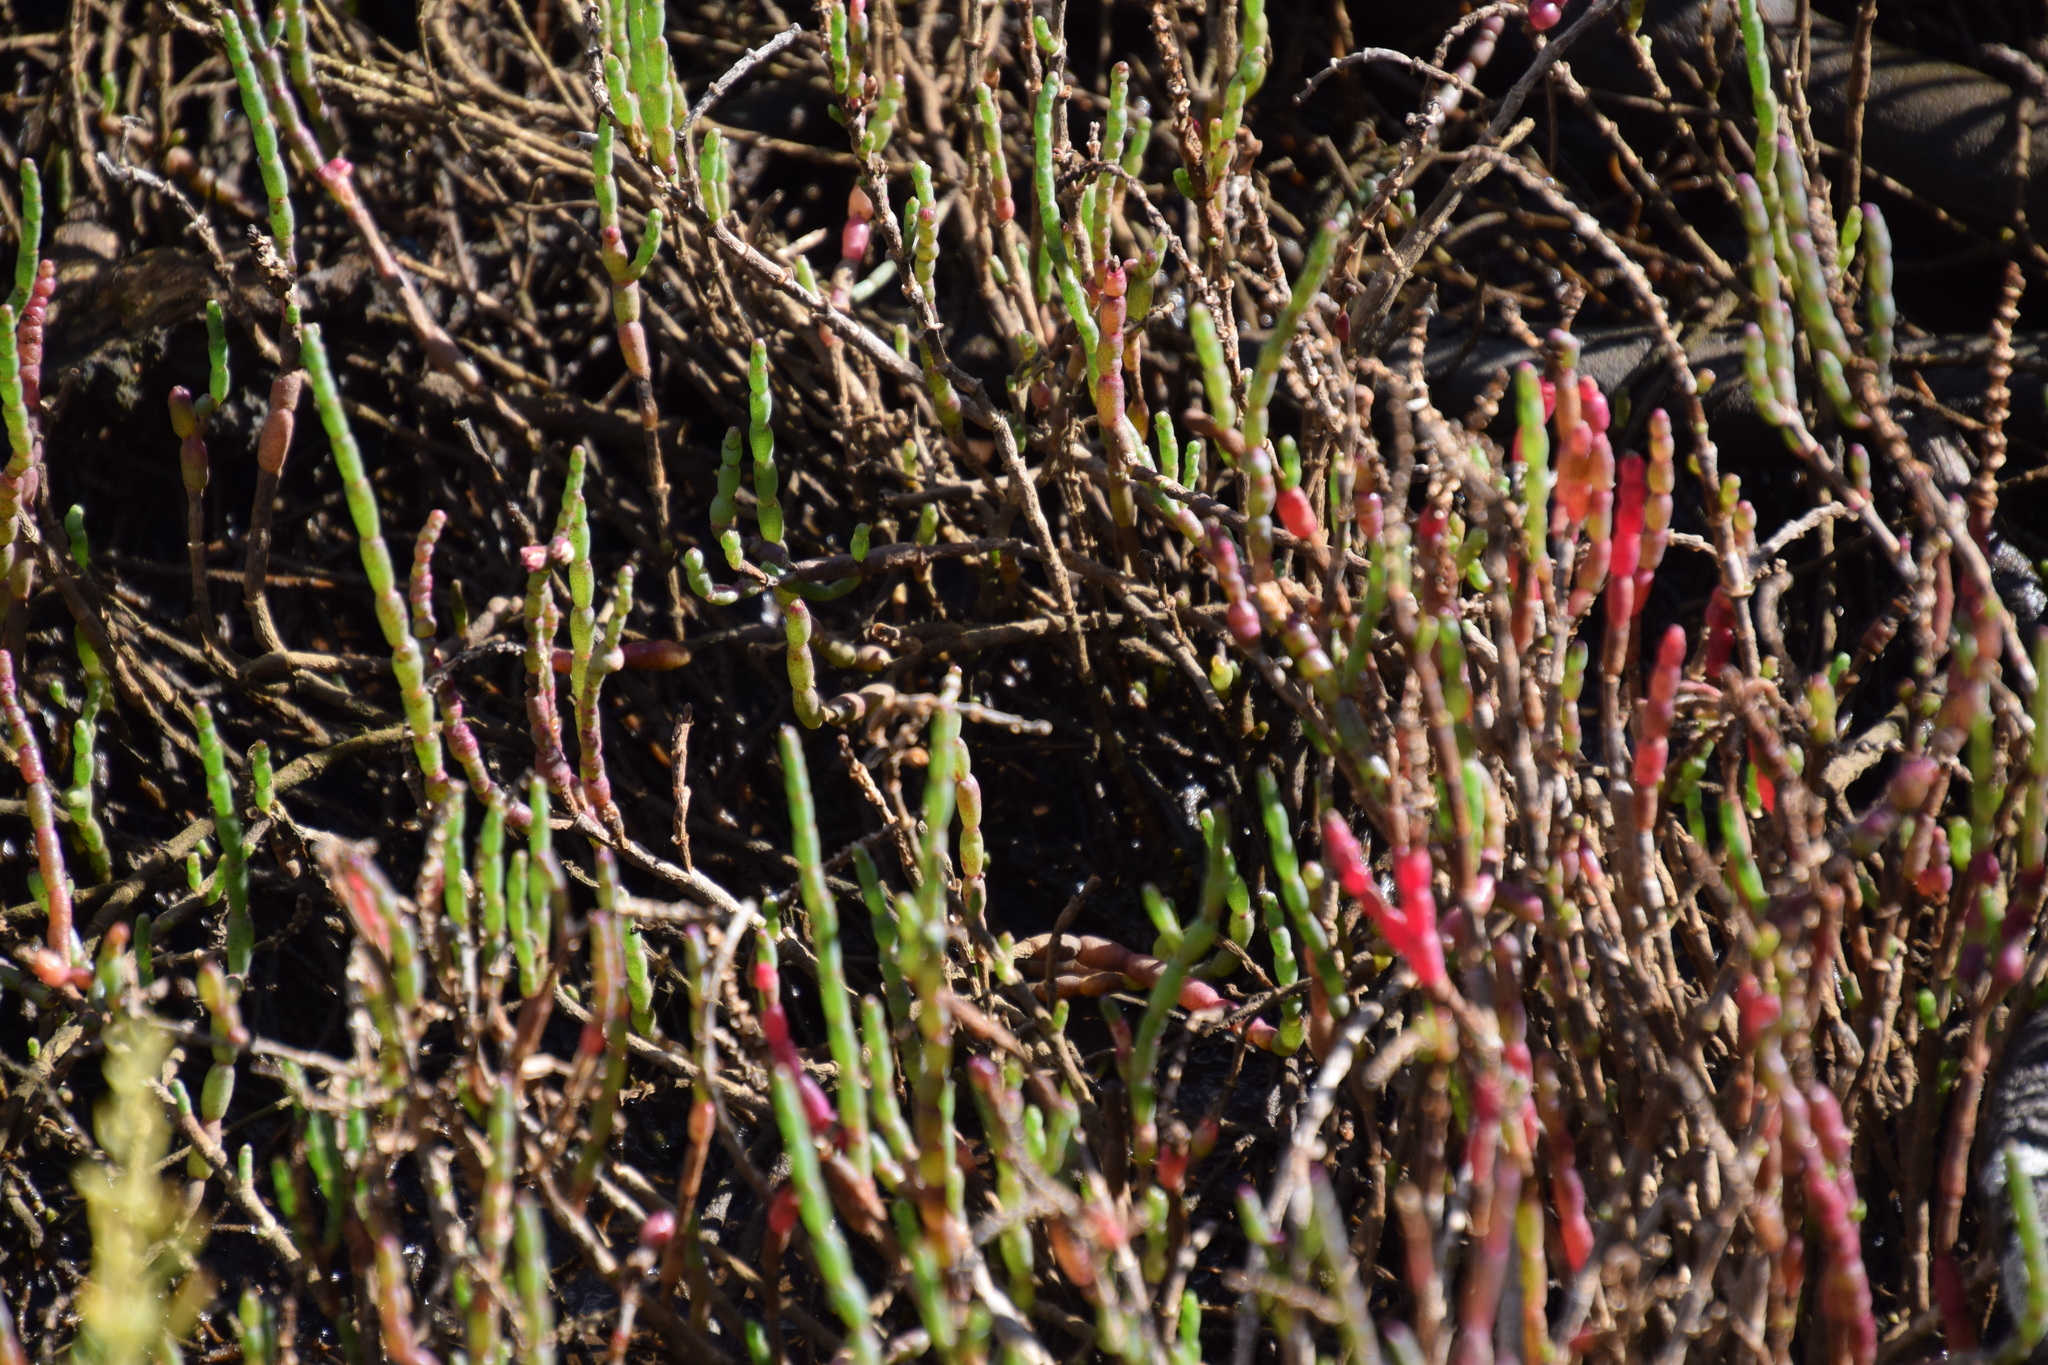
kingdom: Plantae
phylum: Tracheophyta
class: Magnoliopsida
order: Caryophyllales
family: Amaranthaceae
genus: Salicornia
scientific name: Salicornia quinqueflora
